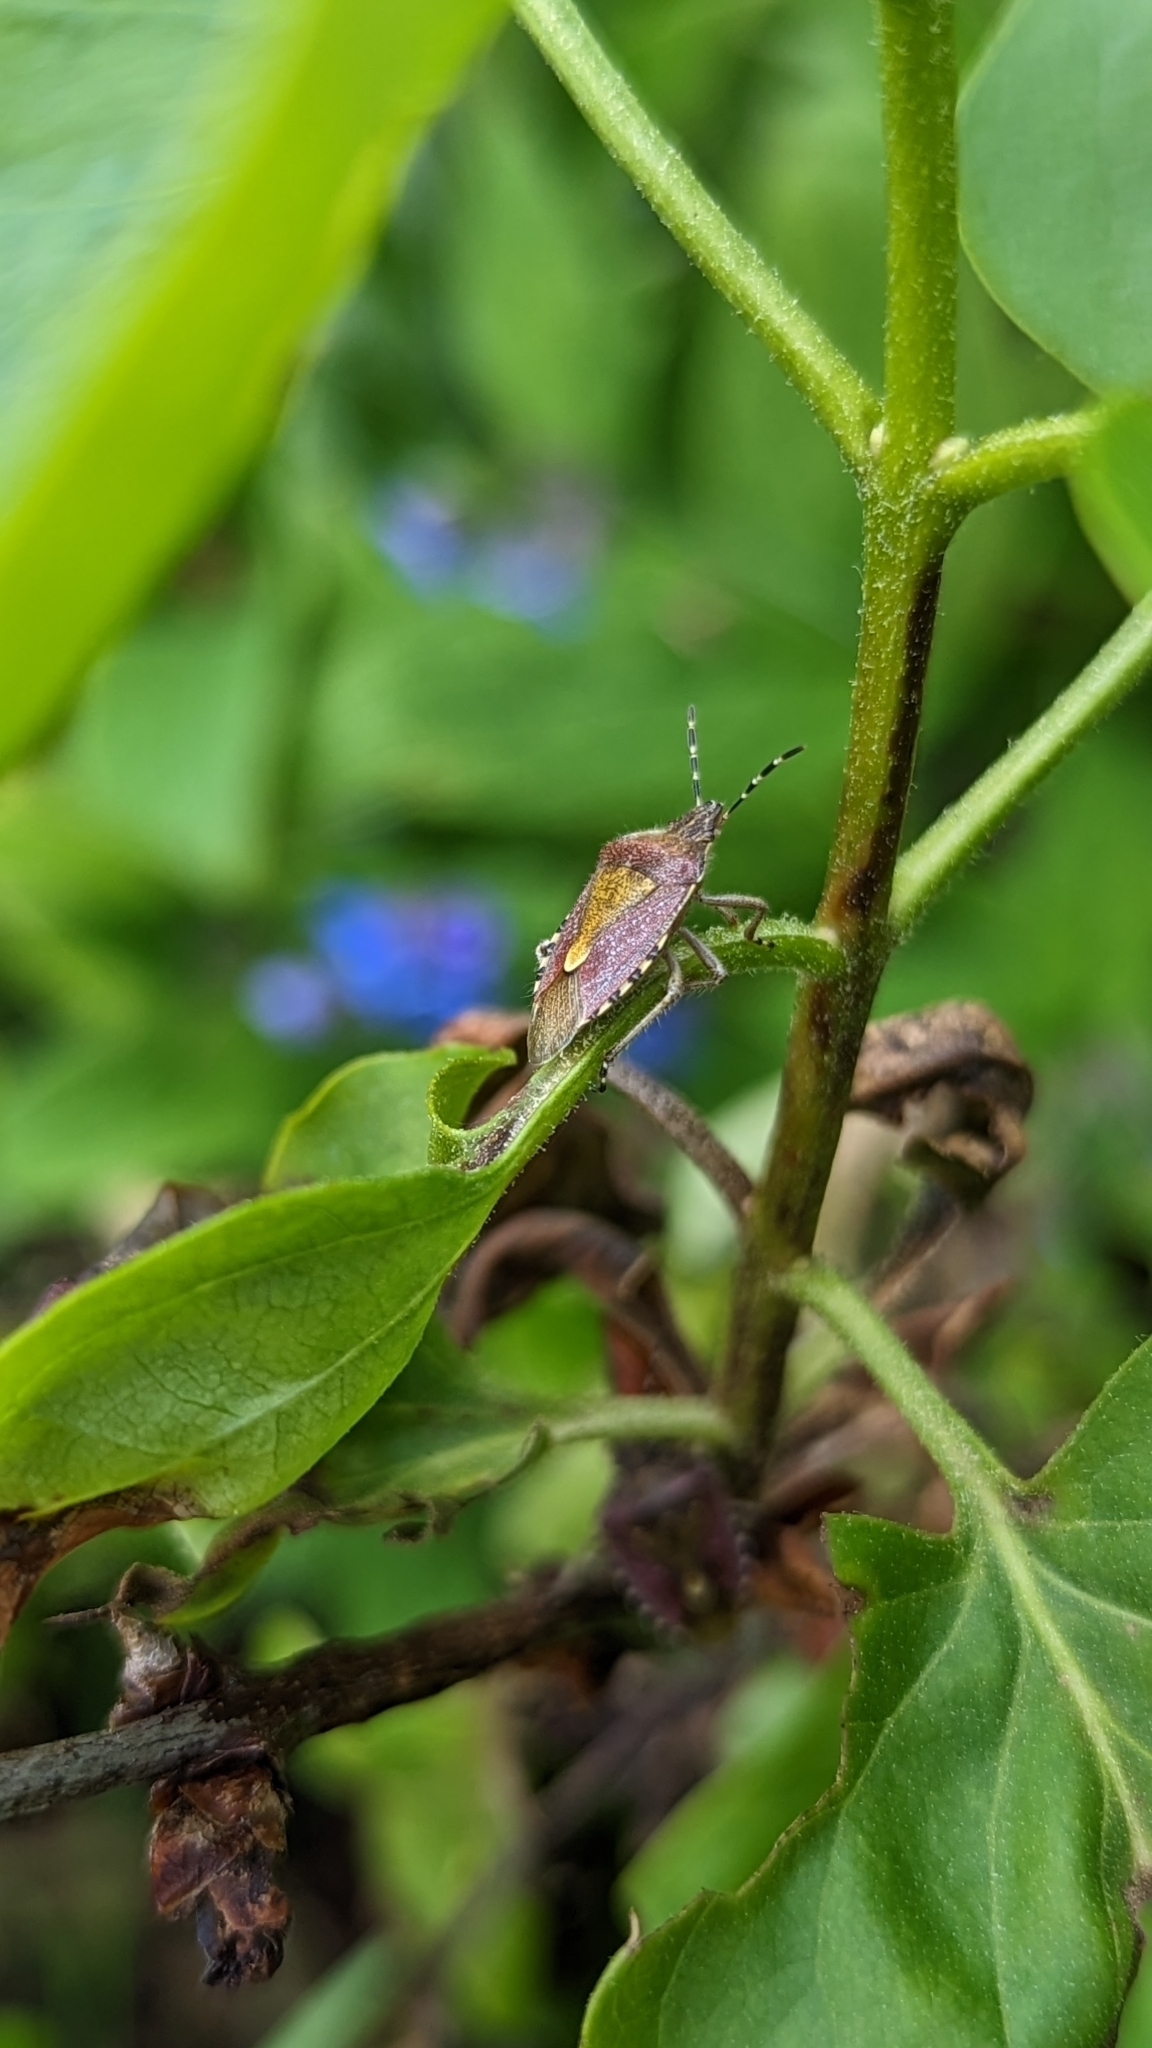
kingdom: Animalia
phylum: Arthropoda
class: Insecta
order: Hemiptera
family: Pentatomidae
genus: Dolycoris
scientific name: Dolycoris baccarum
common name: Sloe bug
